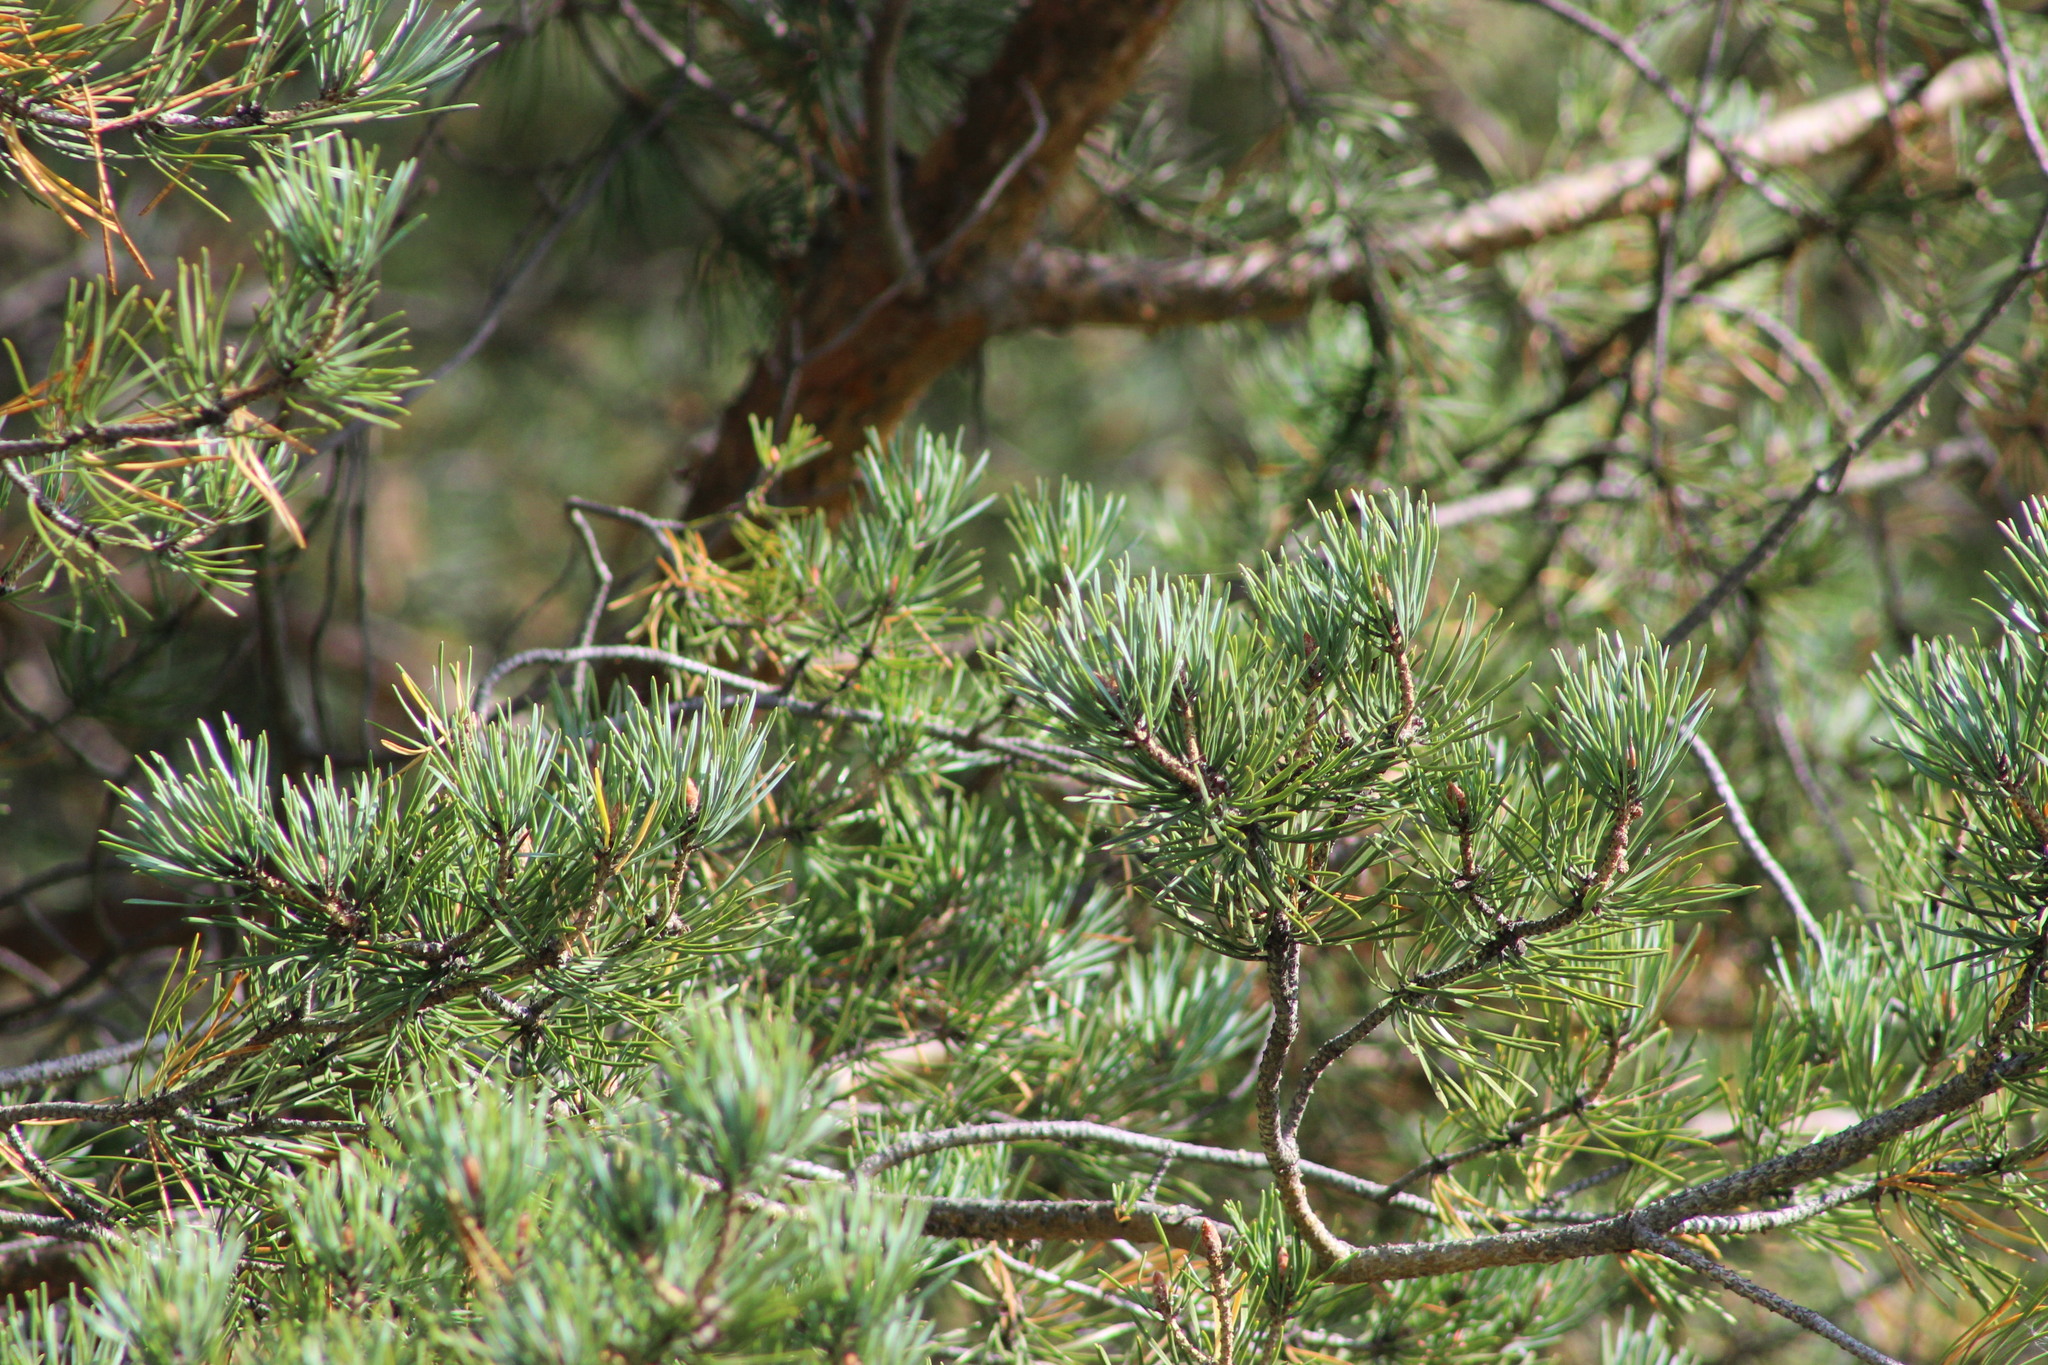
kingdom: Plantae
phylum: Tracheophyta
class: Pinopsida
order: Pinales
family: Pinaceae
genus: Pinus
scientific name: Pinus sylvestris
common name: Scots pine
